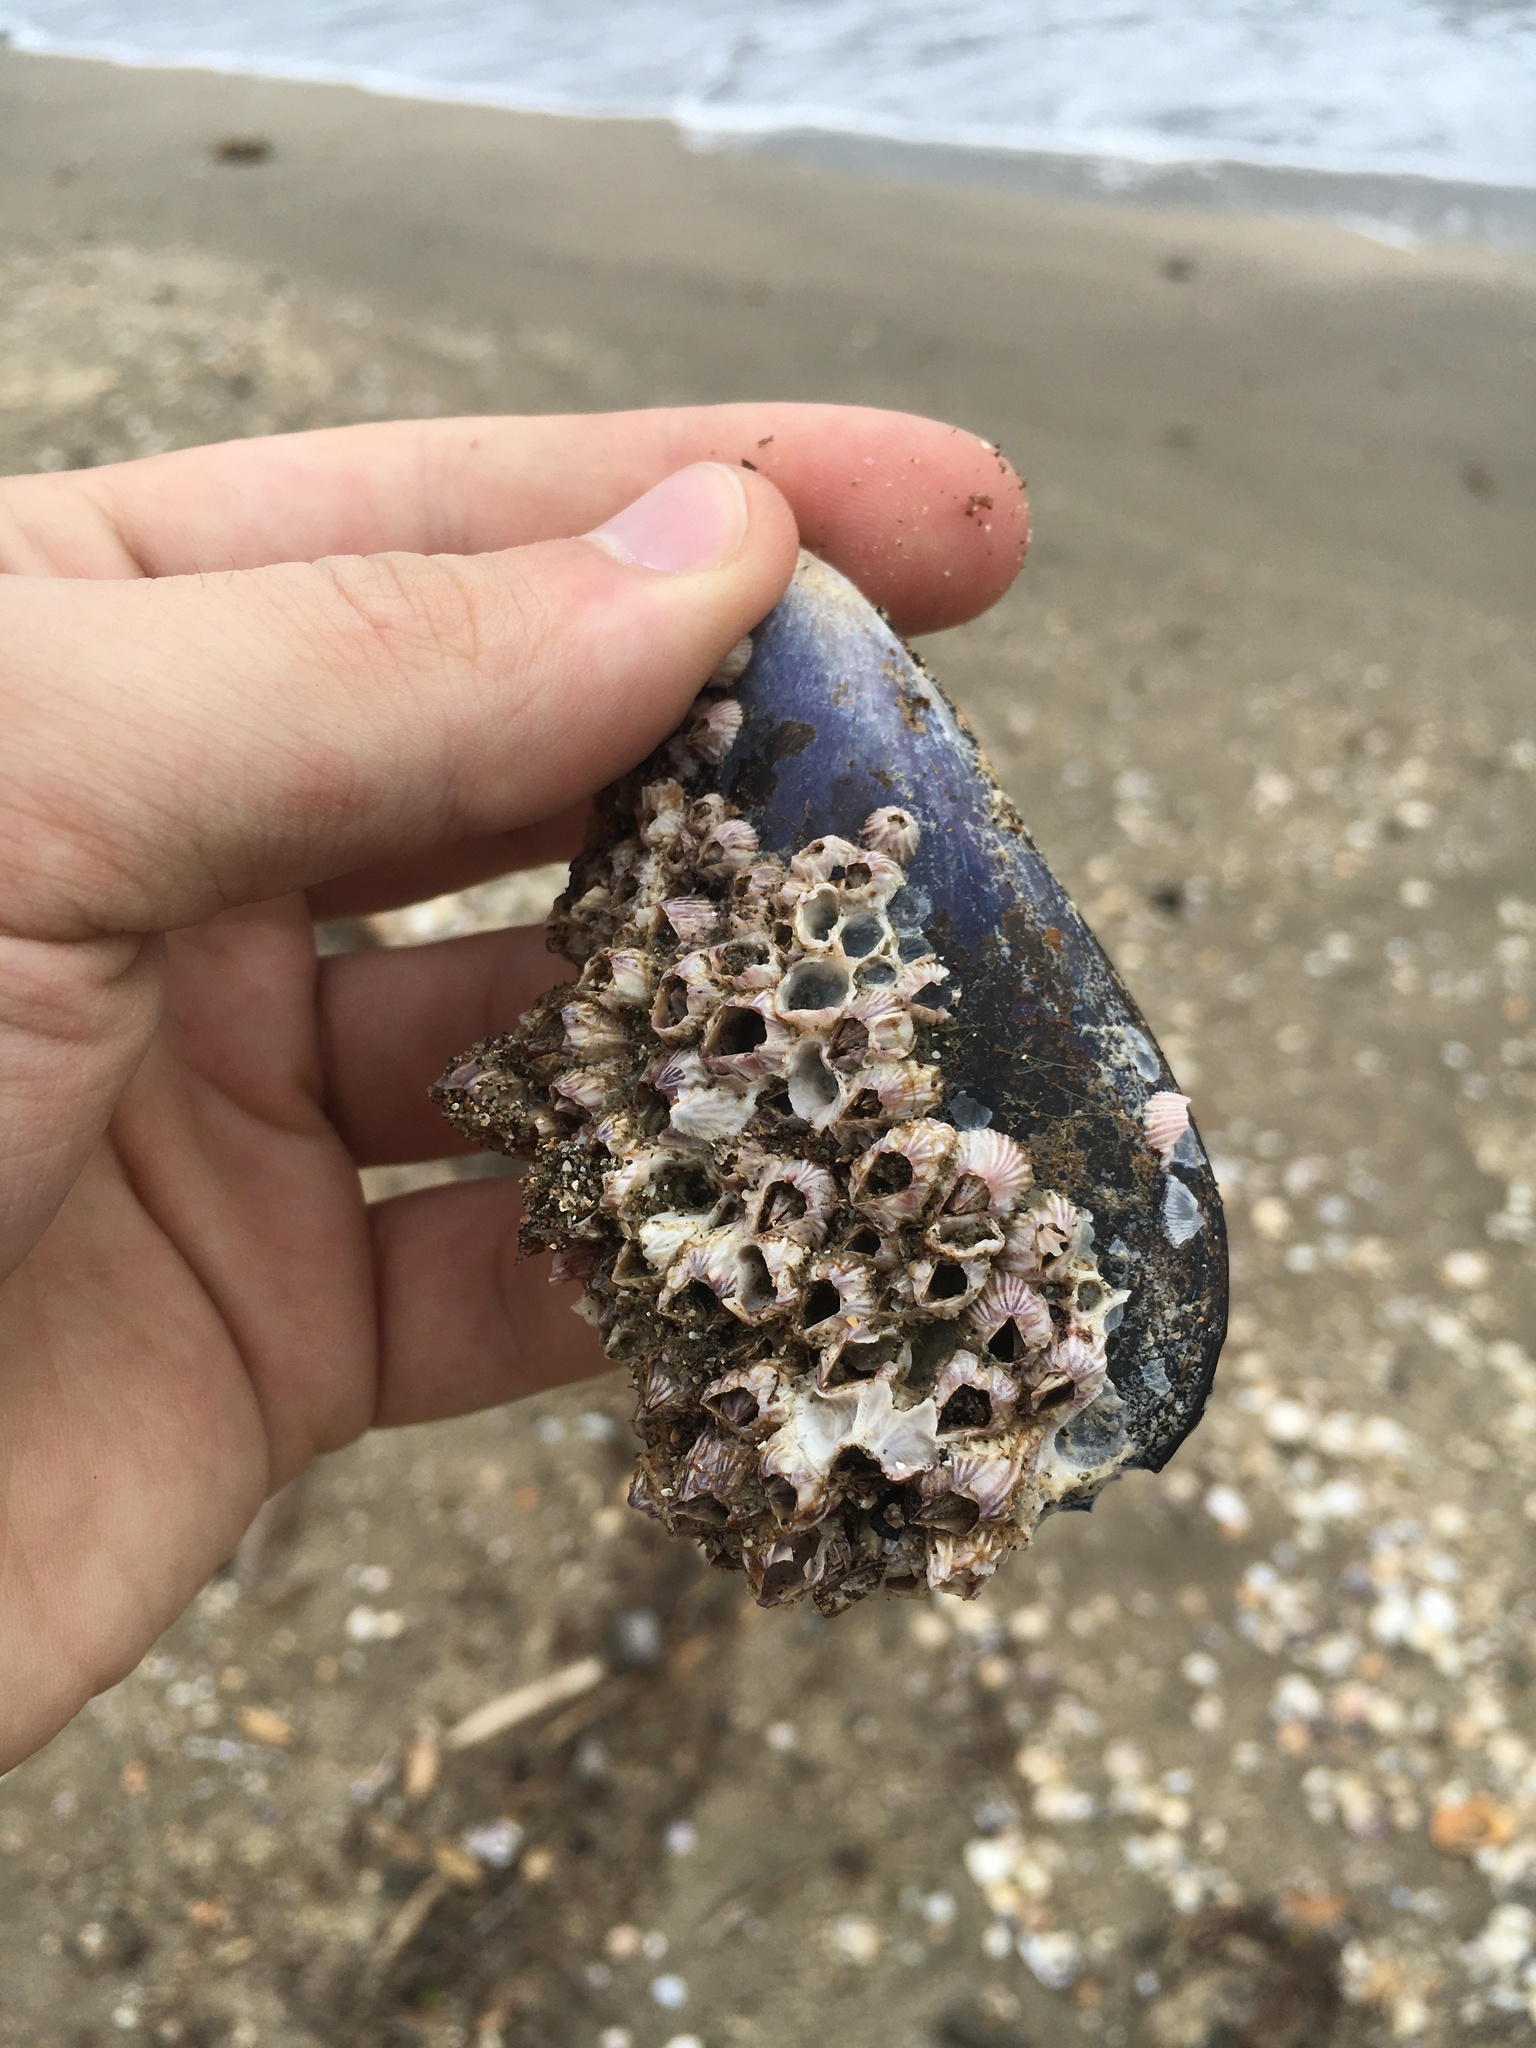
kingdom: Animalia
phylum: Arthropoda
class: Maxillopoda
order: Sessilia
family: Balanidae
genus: Balanus
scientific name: Balanus trigonus
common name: Triangle barnacle
